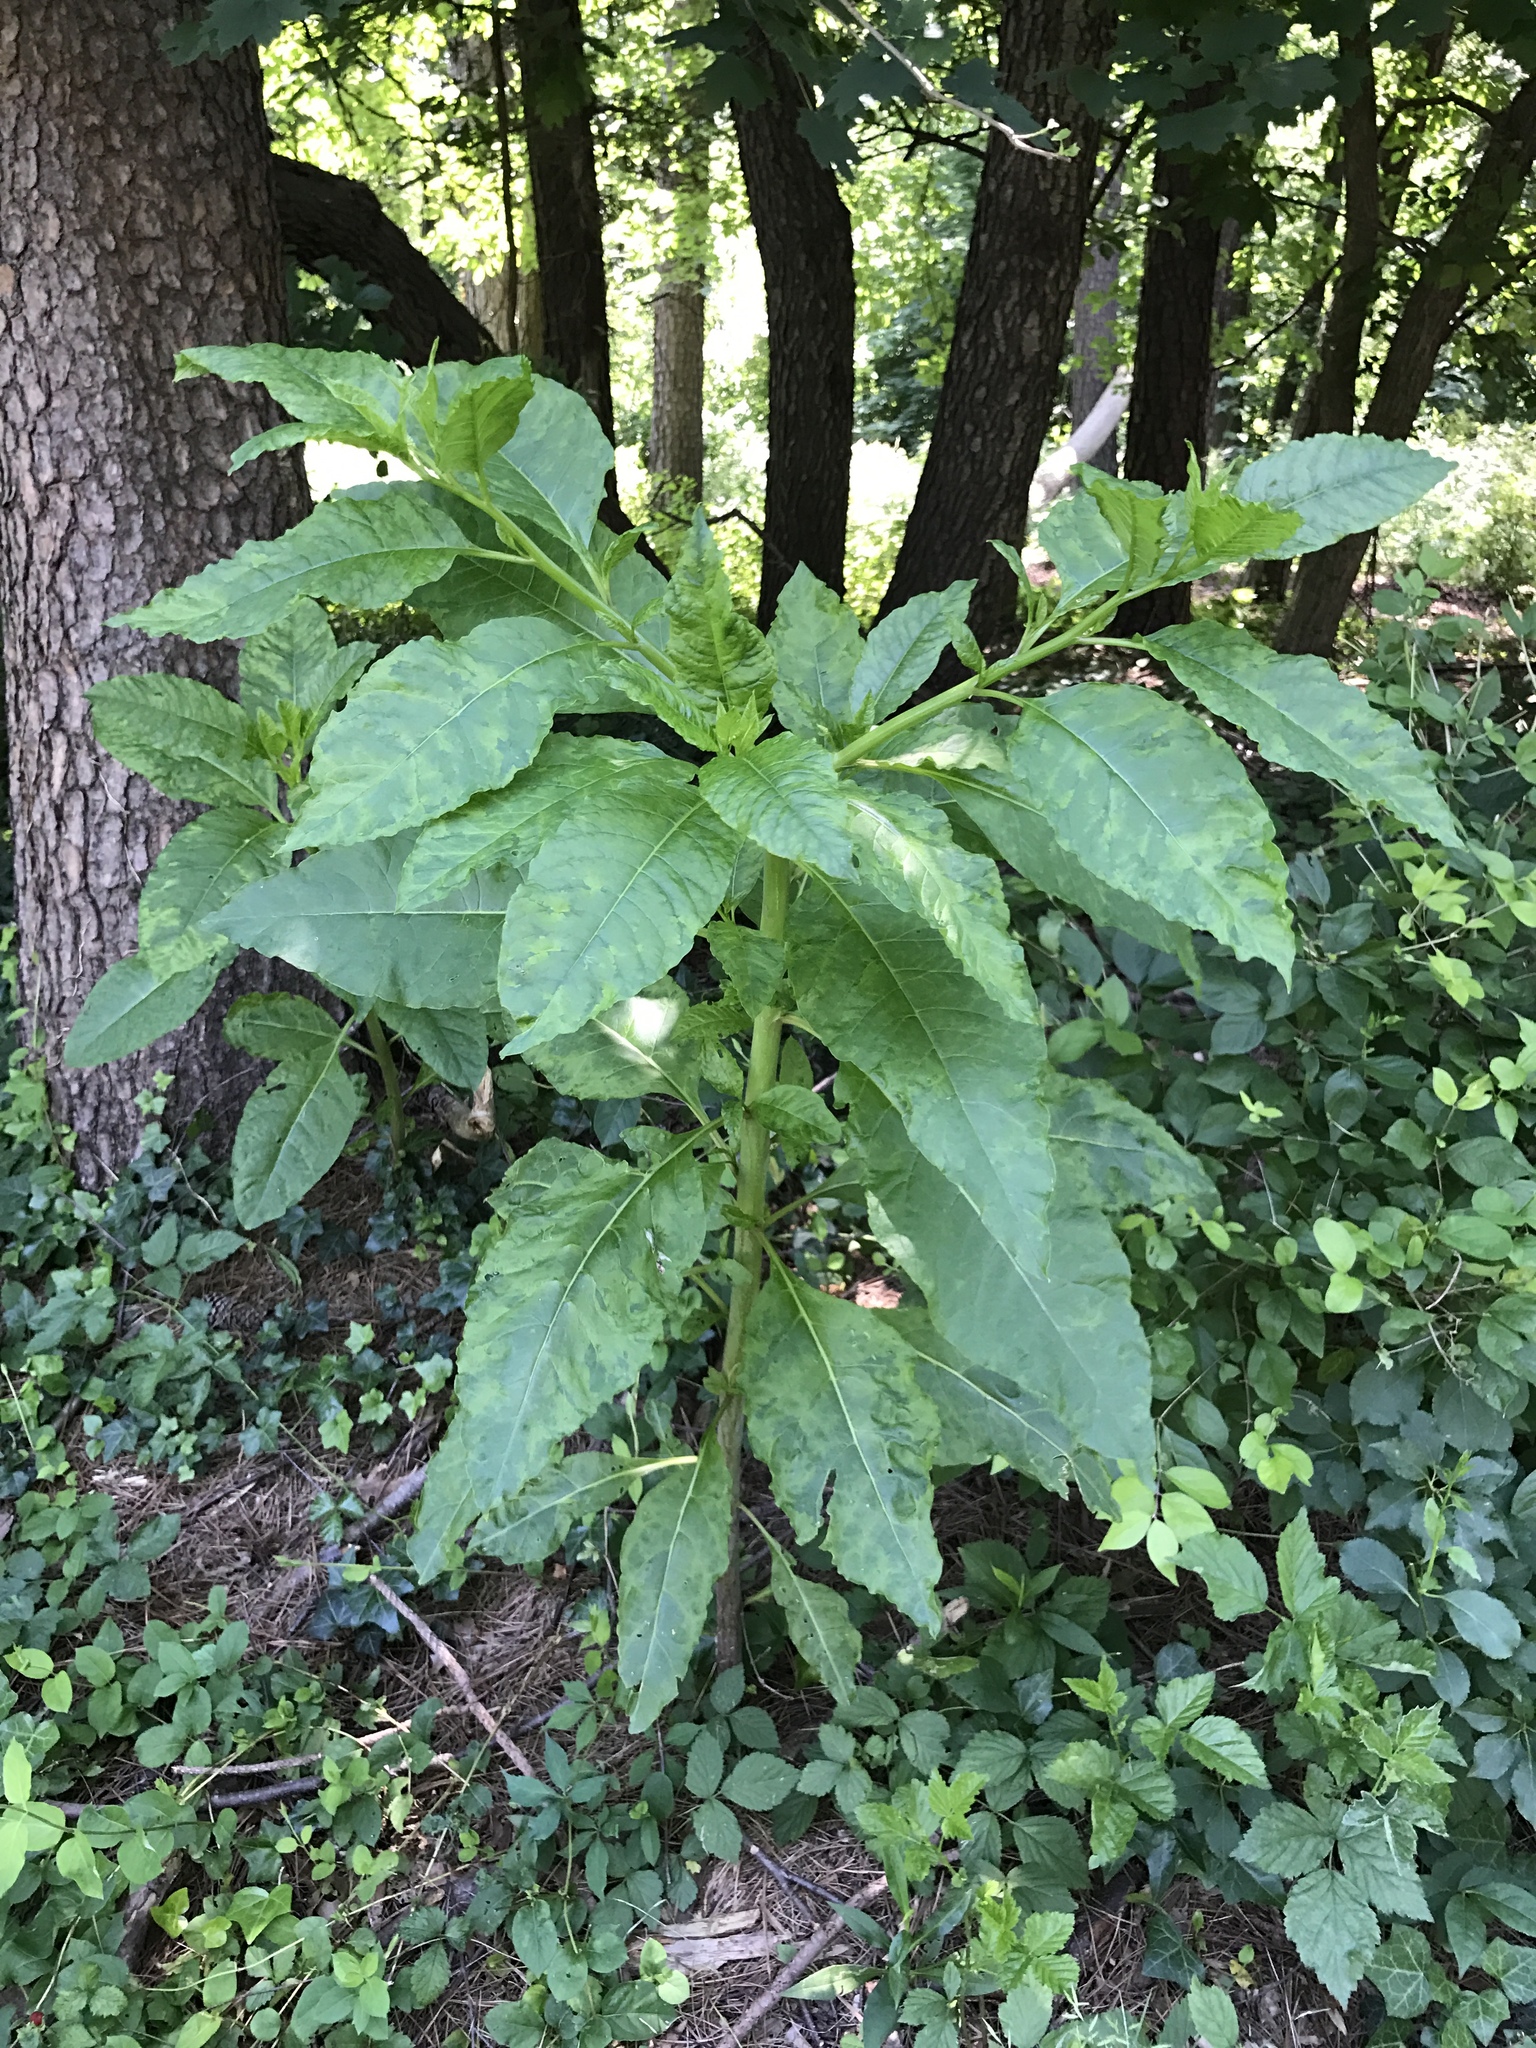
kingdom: Plantae
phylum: Tracheophyta
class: Magnoliopsida
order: Caryophyllales
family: Phytolaccaceae
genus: Phytolacca
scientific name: Phytolacca americana
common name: American pokeweed
